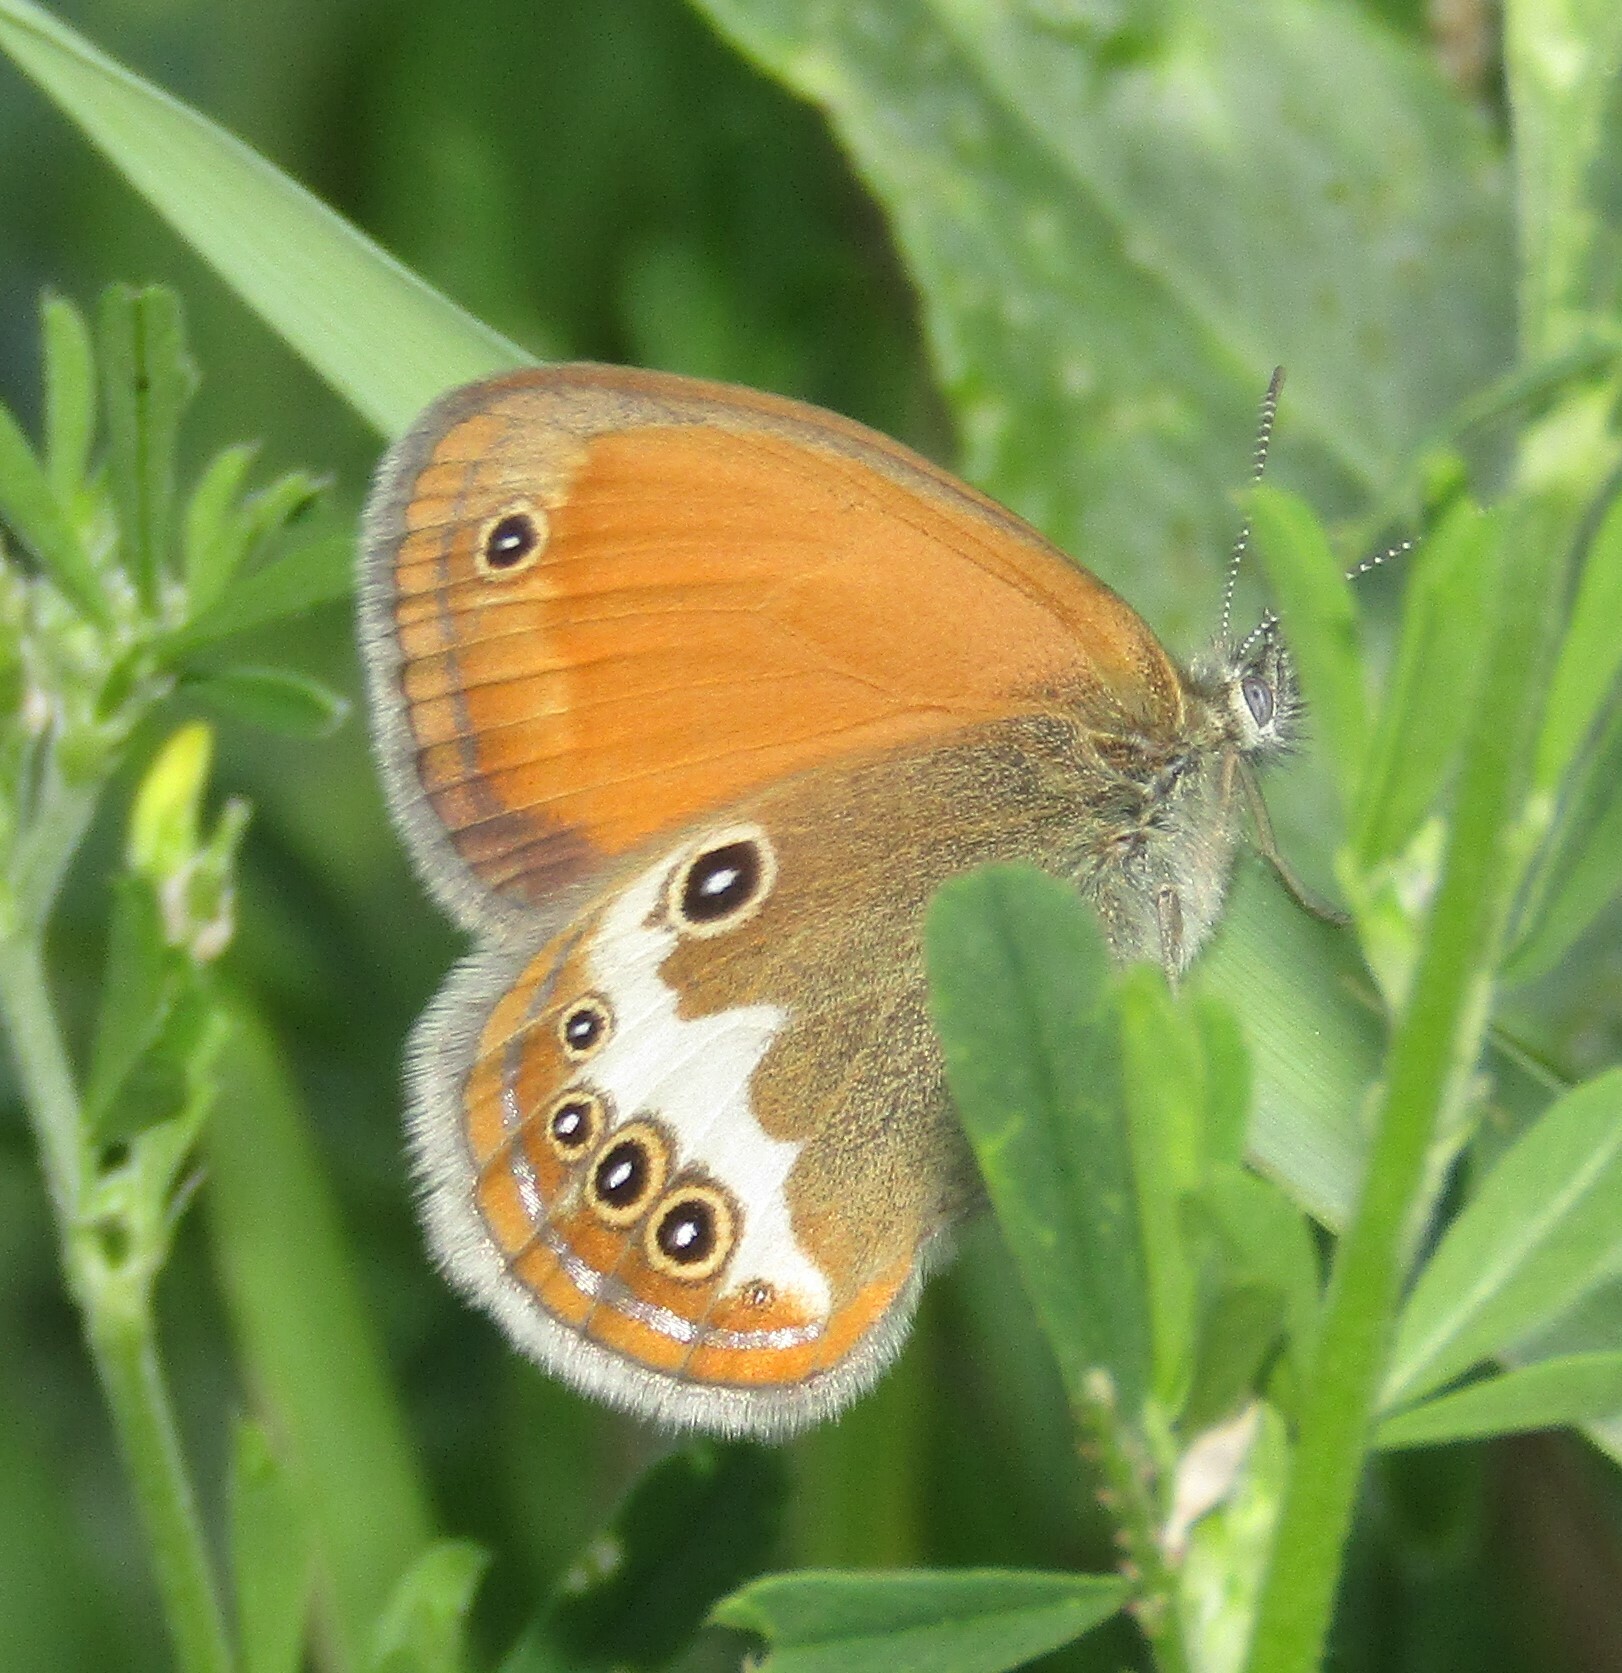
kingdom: Animalia
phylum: Arthropoda
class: Insecta
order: Lepidoptera
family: Nymphalidae
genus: Coenonympha
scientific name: Coenonympha arcania
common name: Pearly heath
